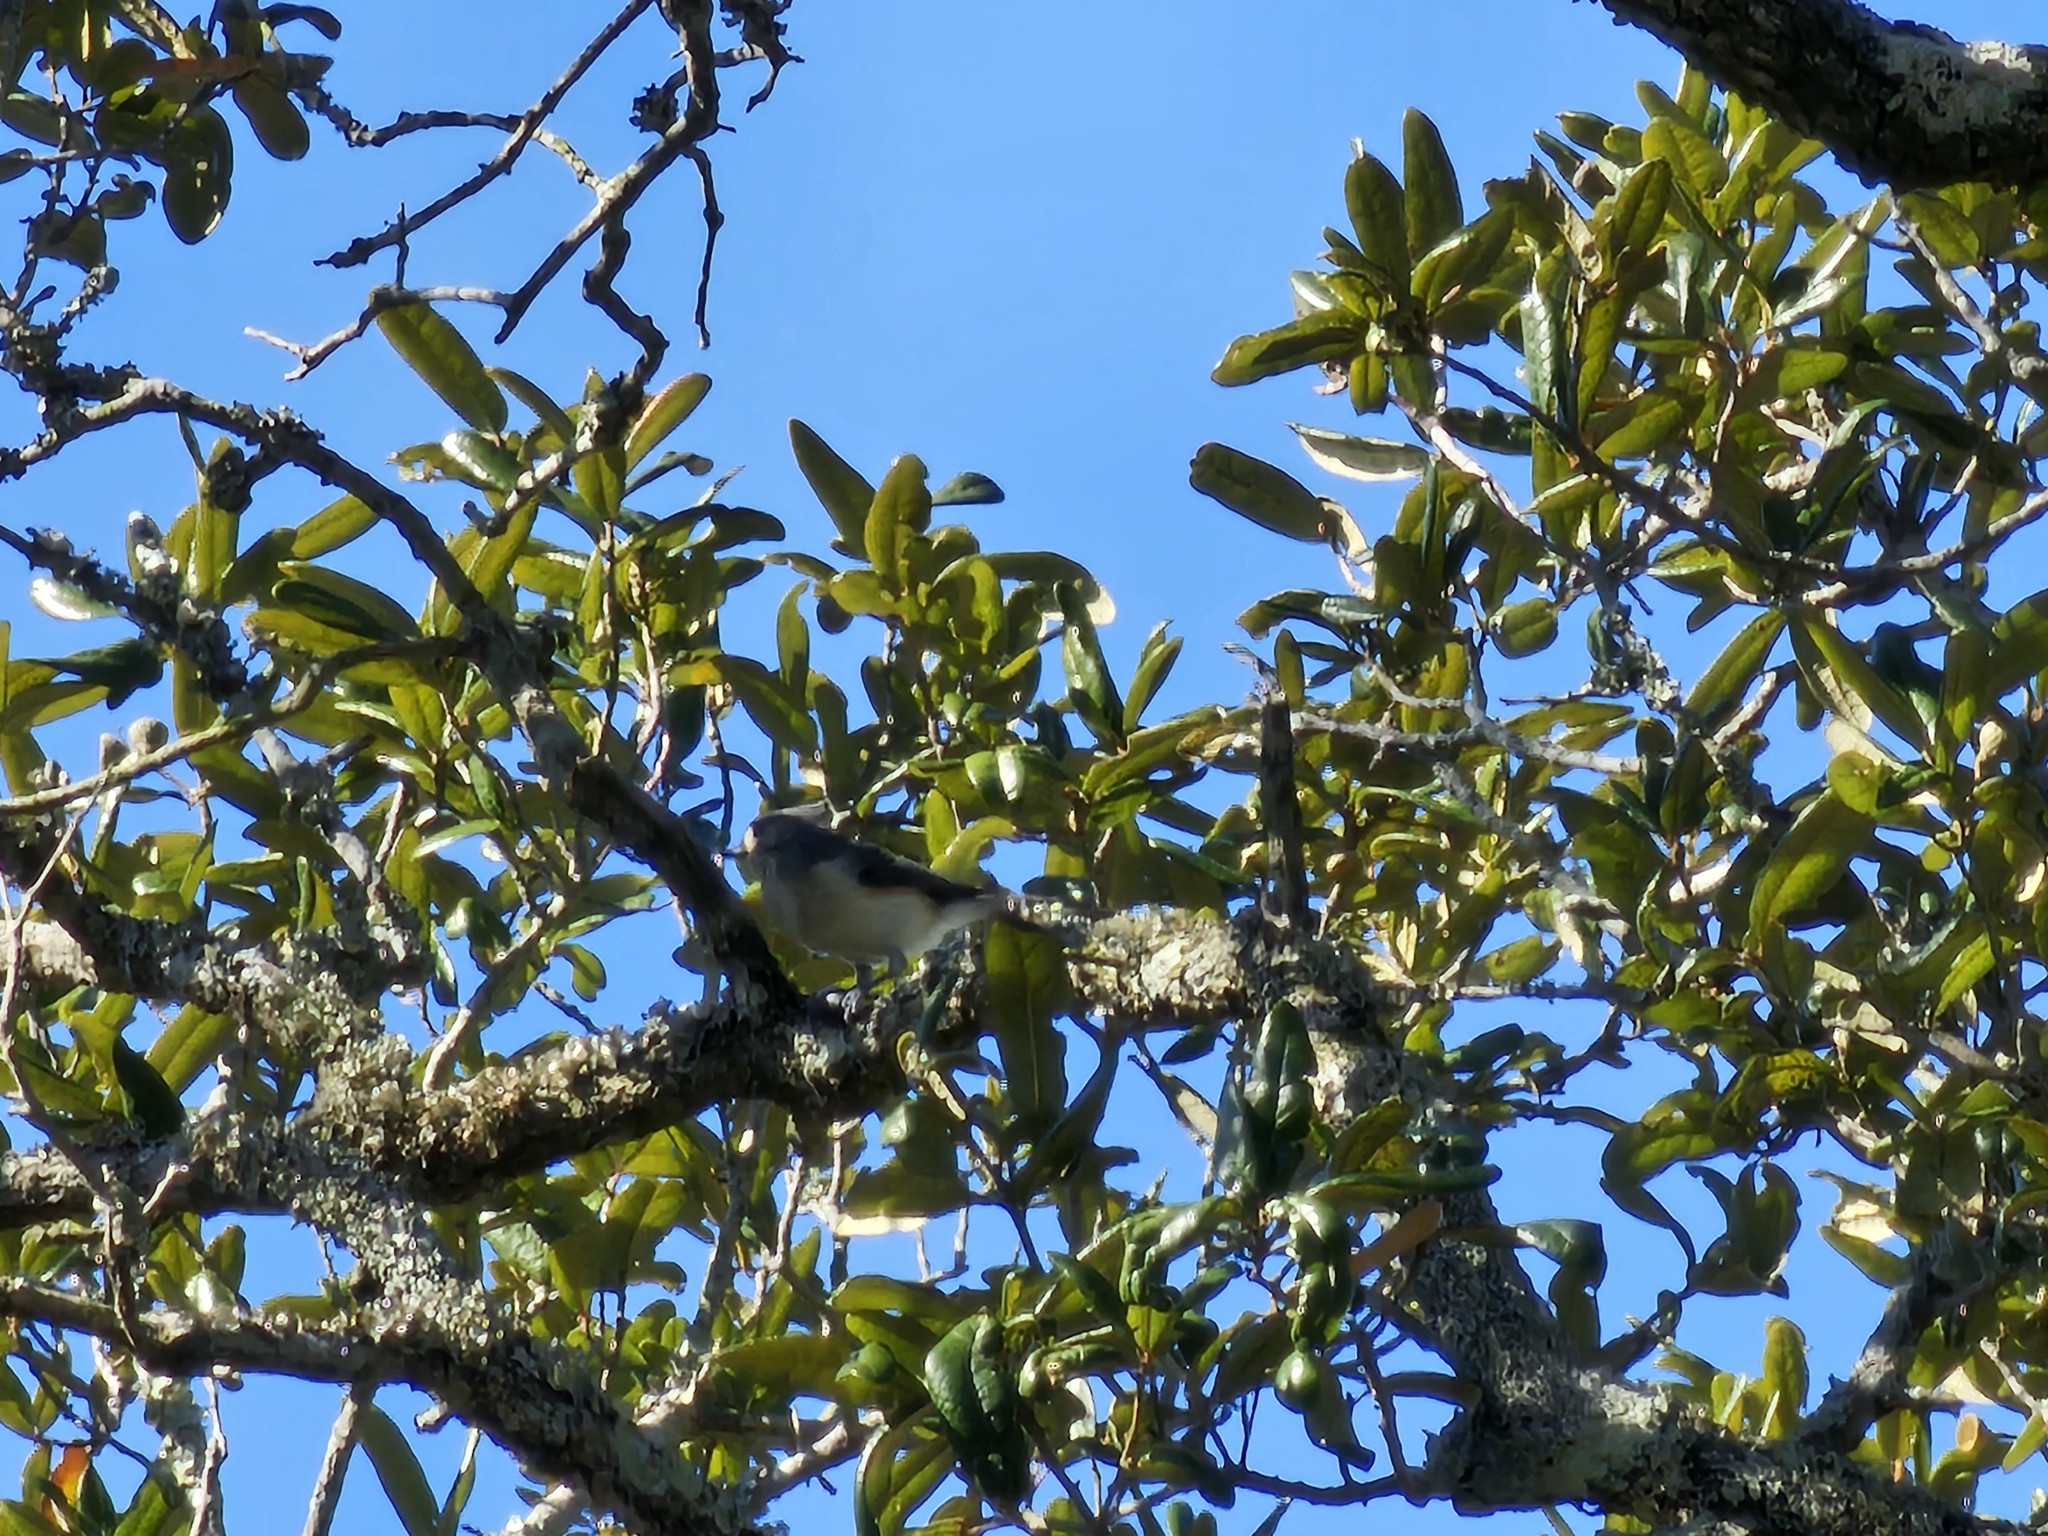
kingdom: Animalia
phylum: Chordata
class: Aves
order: Passeriformes
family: Paridae
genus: Baeolophus
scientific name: Baeolophus bicolor
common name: Tufted titmouse
